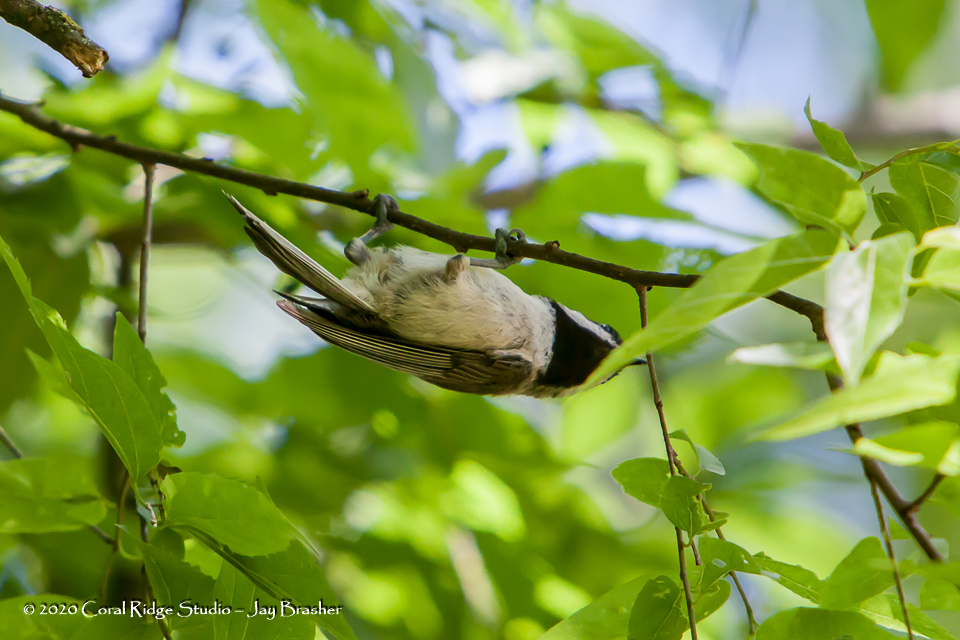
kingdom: Animalia
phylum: Chordata
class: Aves
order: Passeriformes
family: Paridae
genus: Poecile
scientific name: Poecile carolinensis
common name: Carolina chickadee
